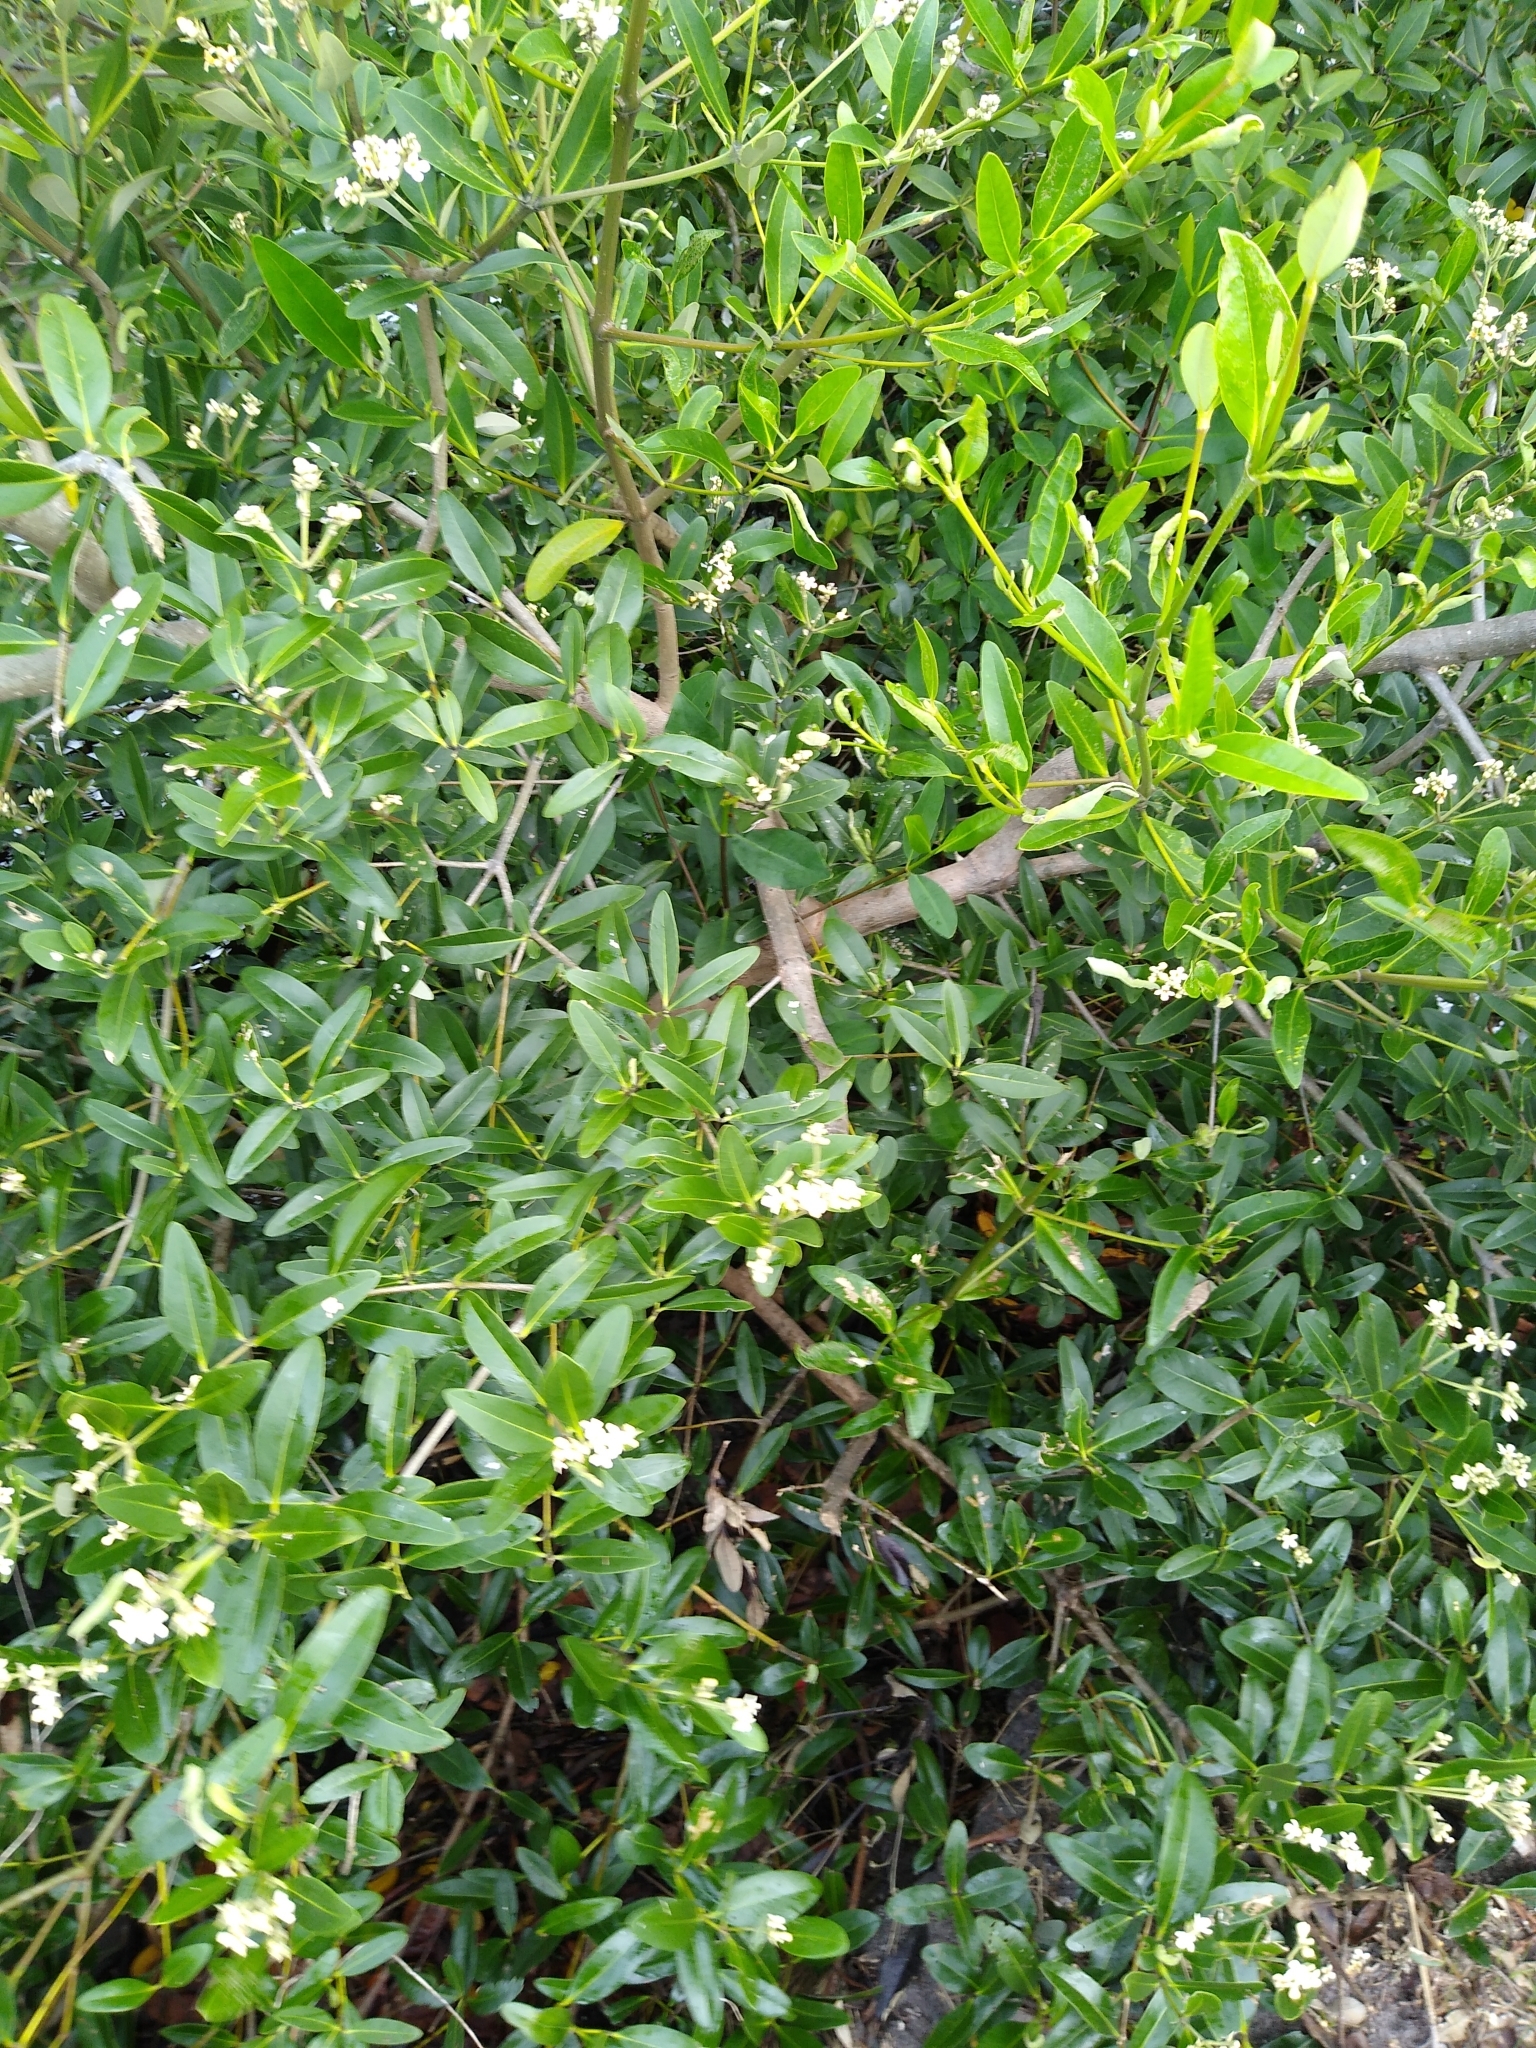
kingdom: Plantae
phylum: Tracheophyta
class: Magnoliopsida
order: Lamiales
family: Acanthaceae
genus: Avicennia
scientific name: Avicennia germinans
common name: Black mangrove
